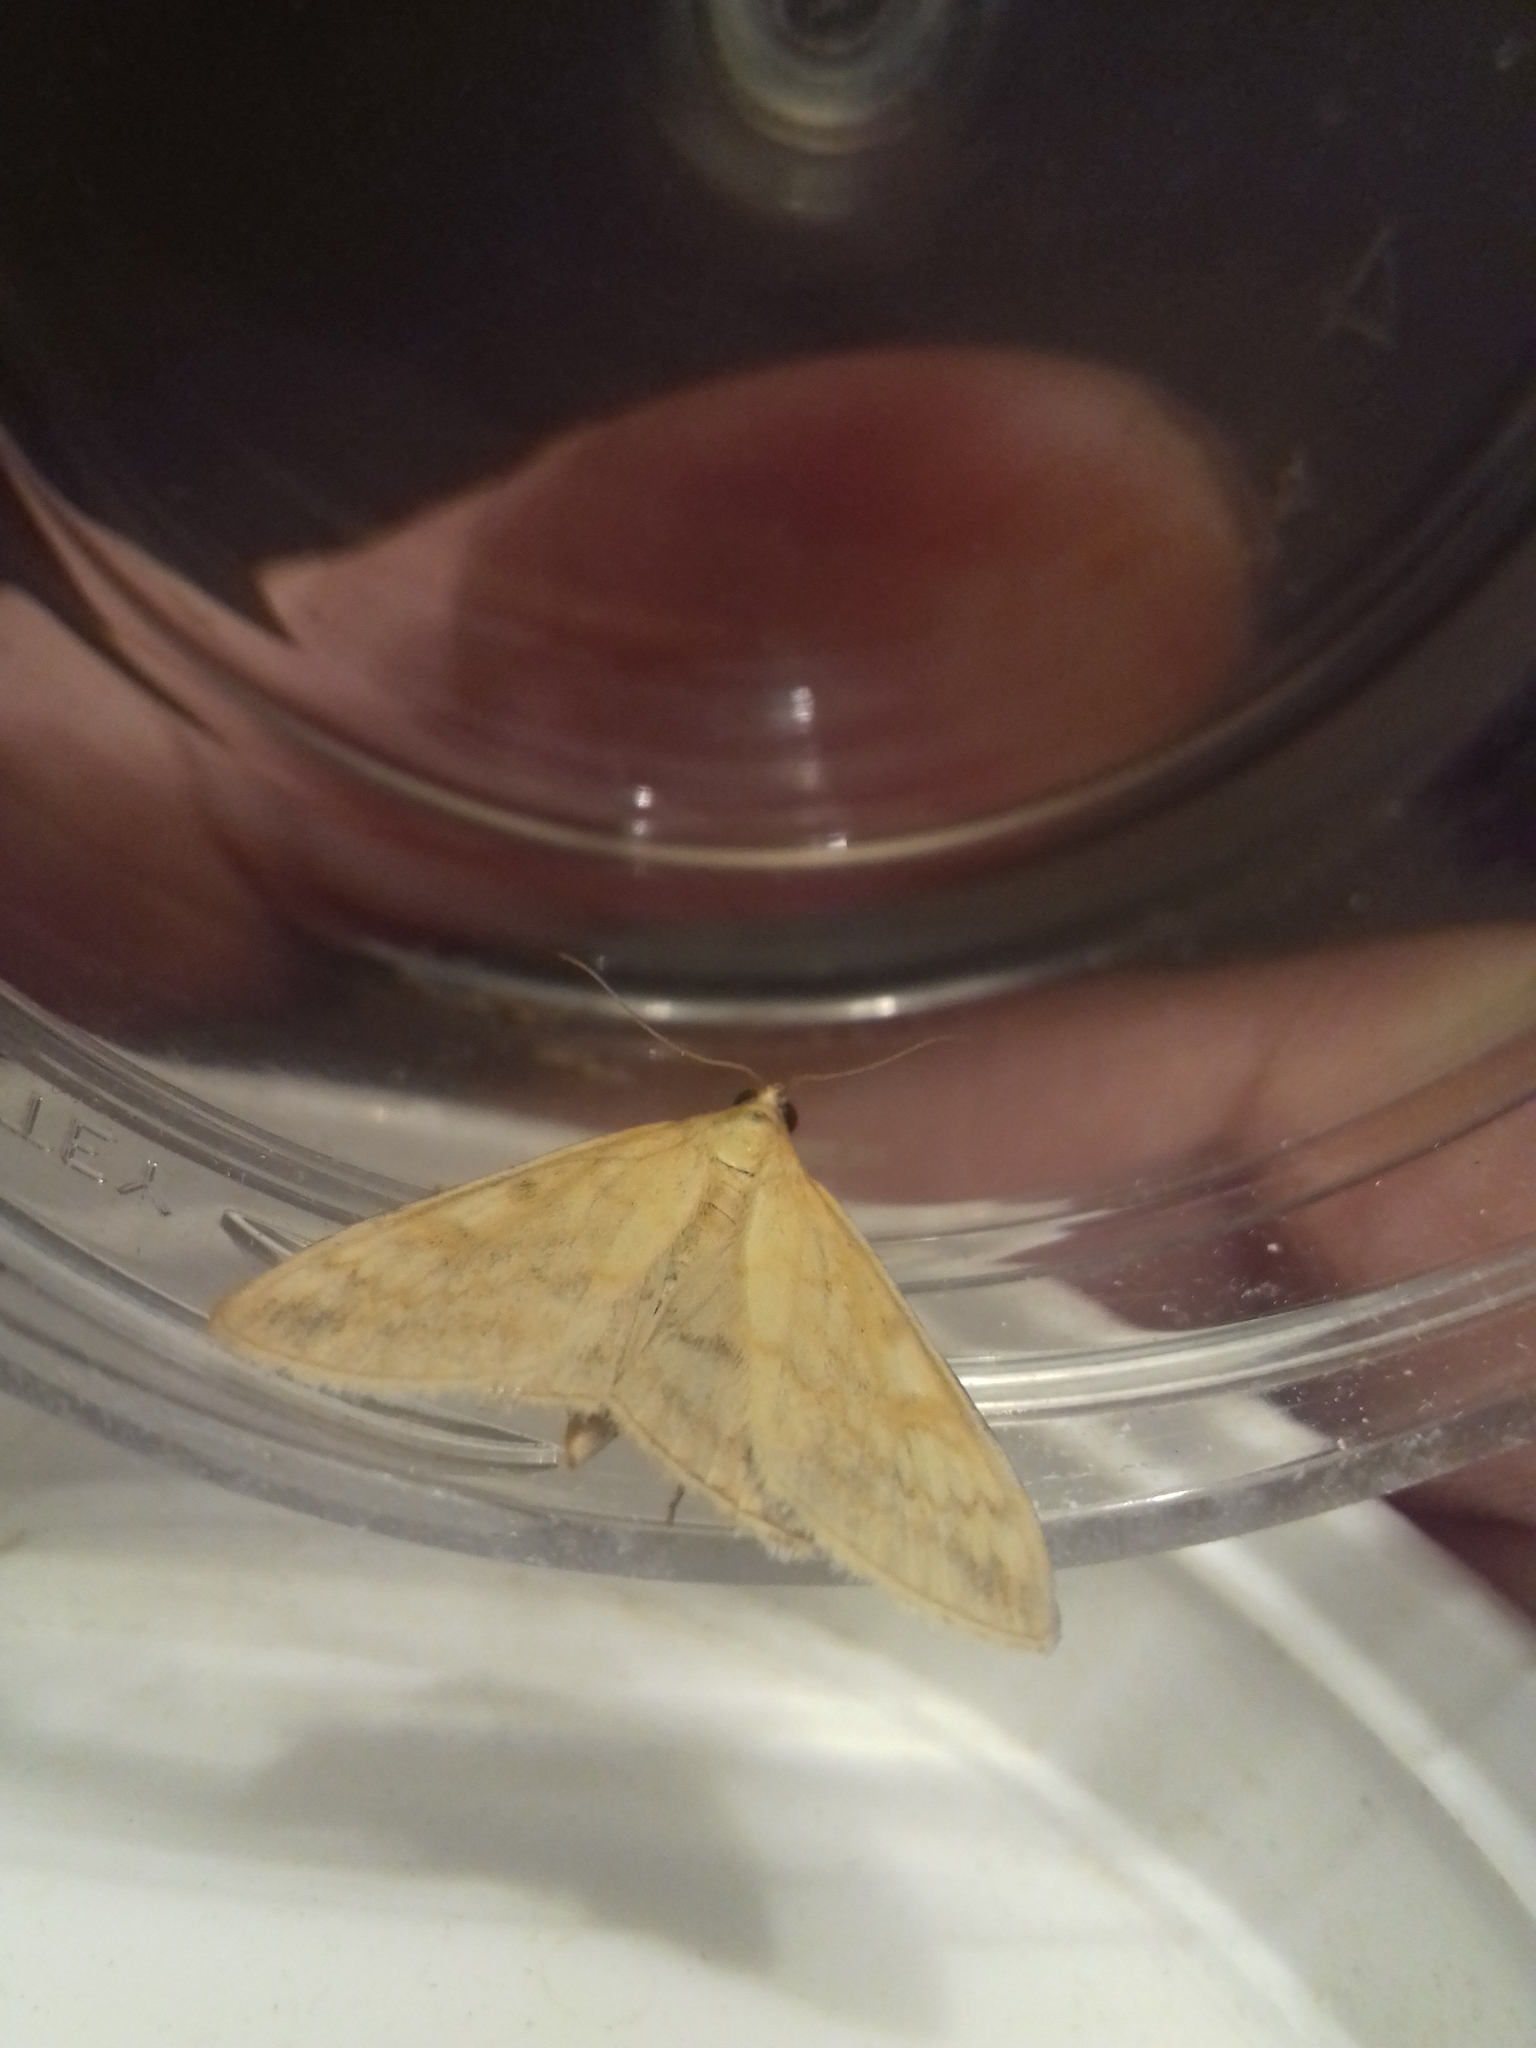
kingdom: Animalia
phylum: Arthropoda
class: Insecta
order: Lepidoptera
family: Crambidae
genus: Sitochroa
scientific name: Sitochroa verticalis
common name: Lesser pearl
